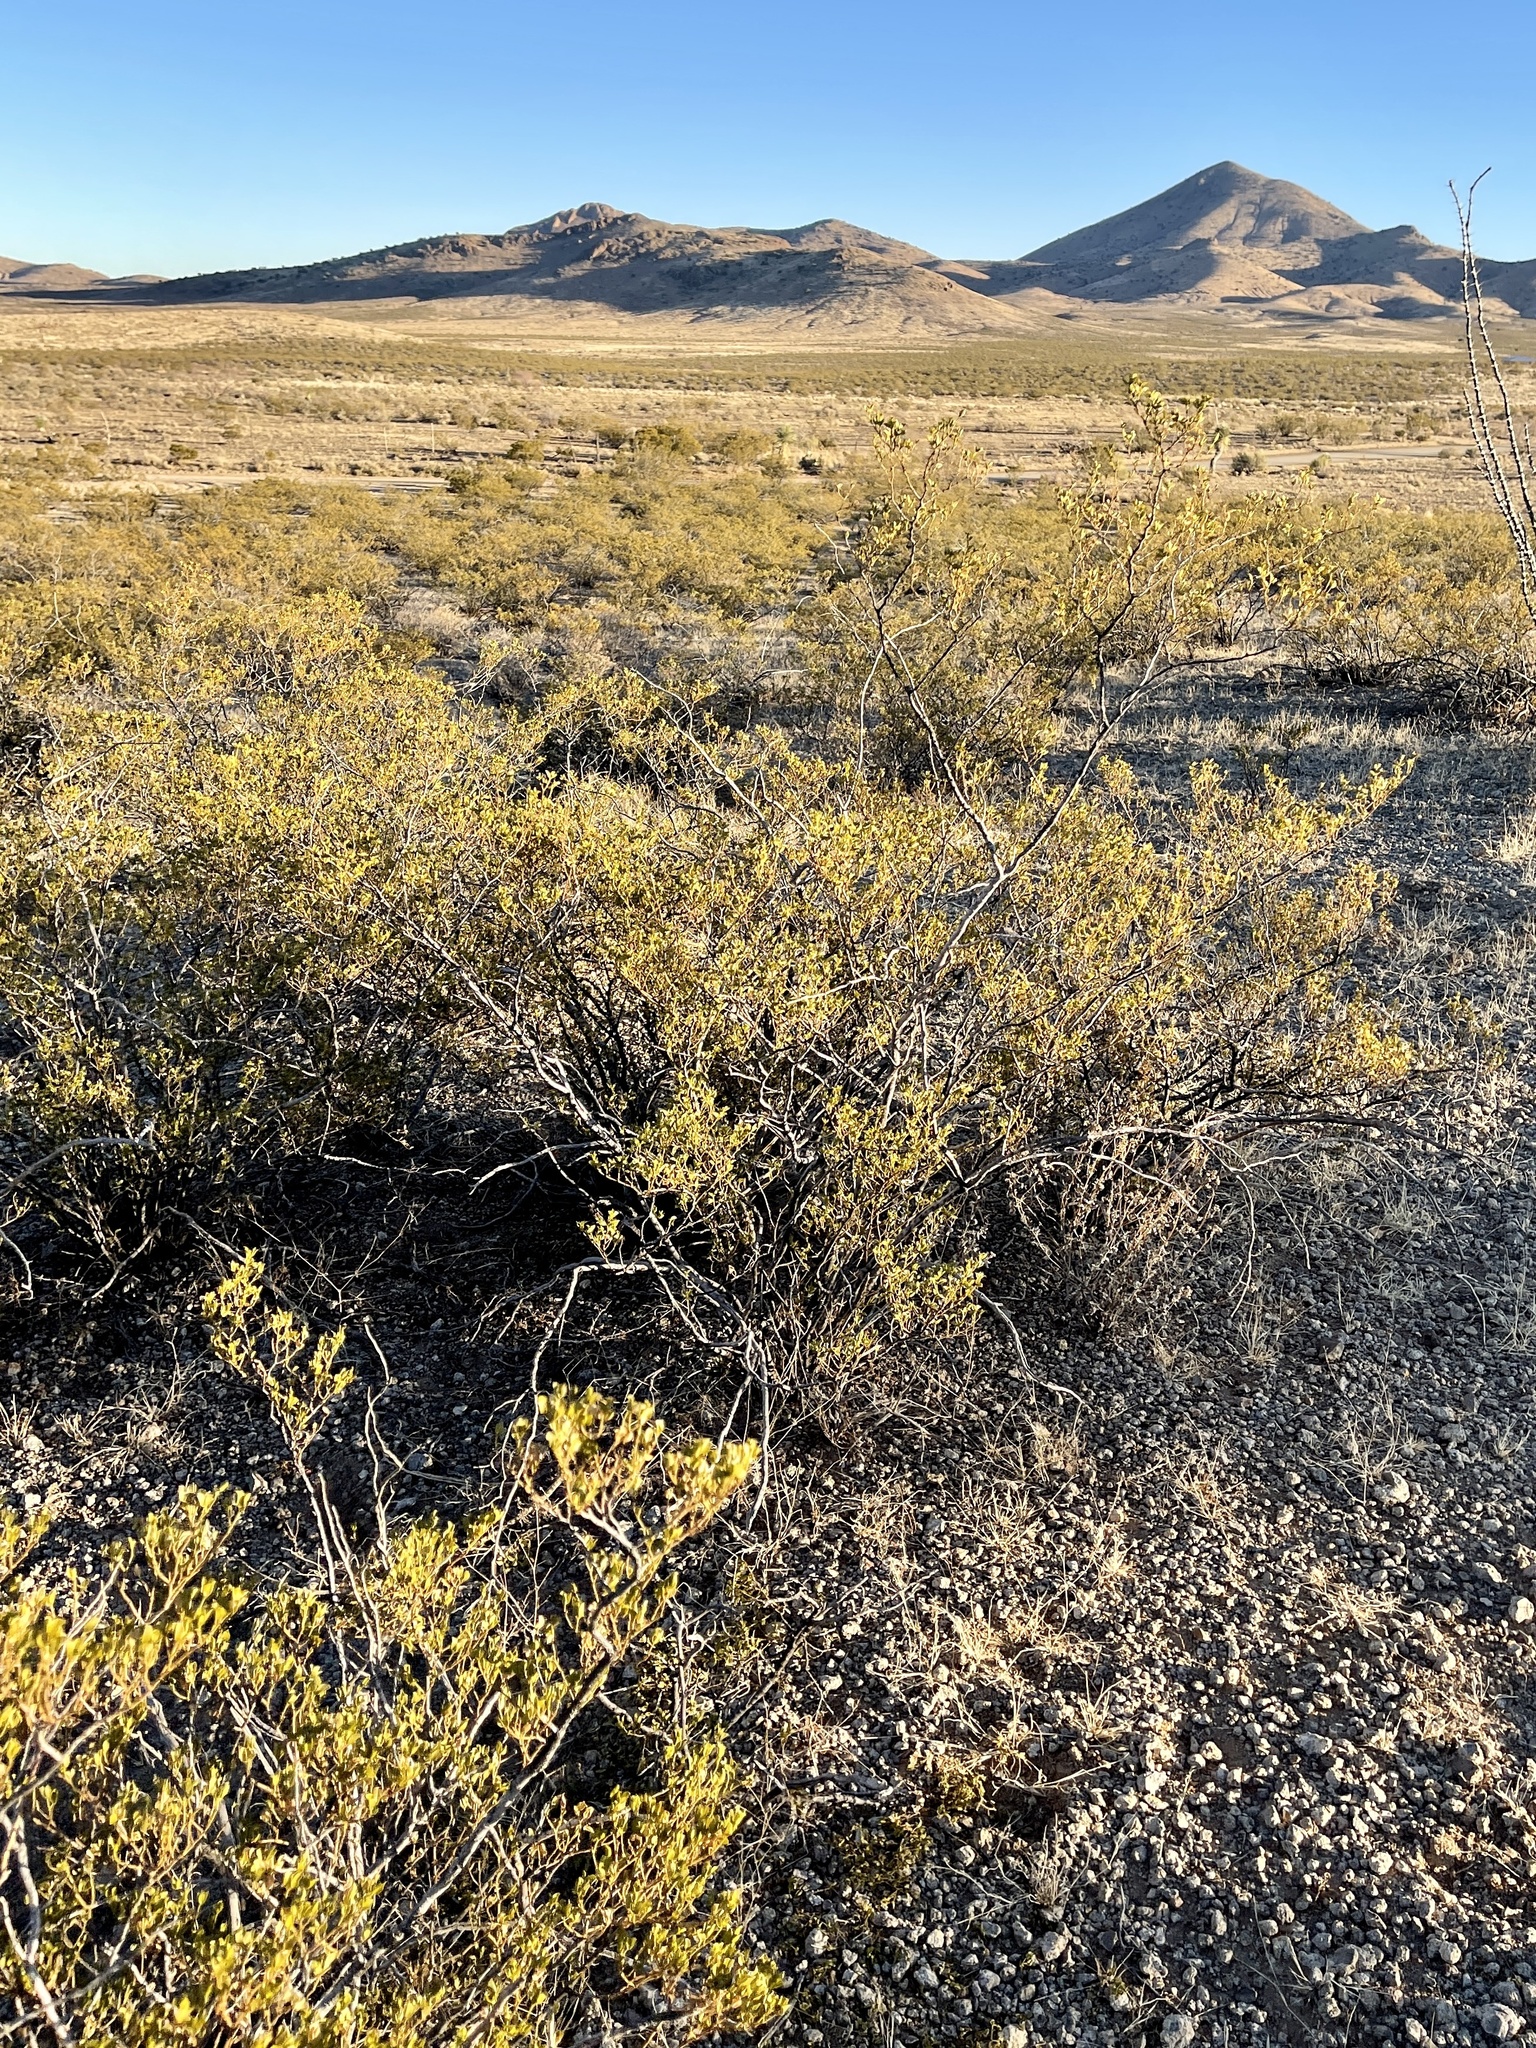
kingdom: Plantae
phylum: Tracheophyta
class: Magnoliopsida
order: Zygophyllales
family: Zygophyllaceae
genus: Larrea
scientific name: Larrea tridentata
